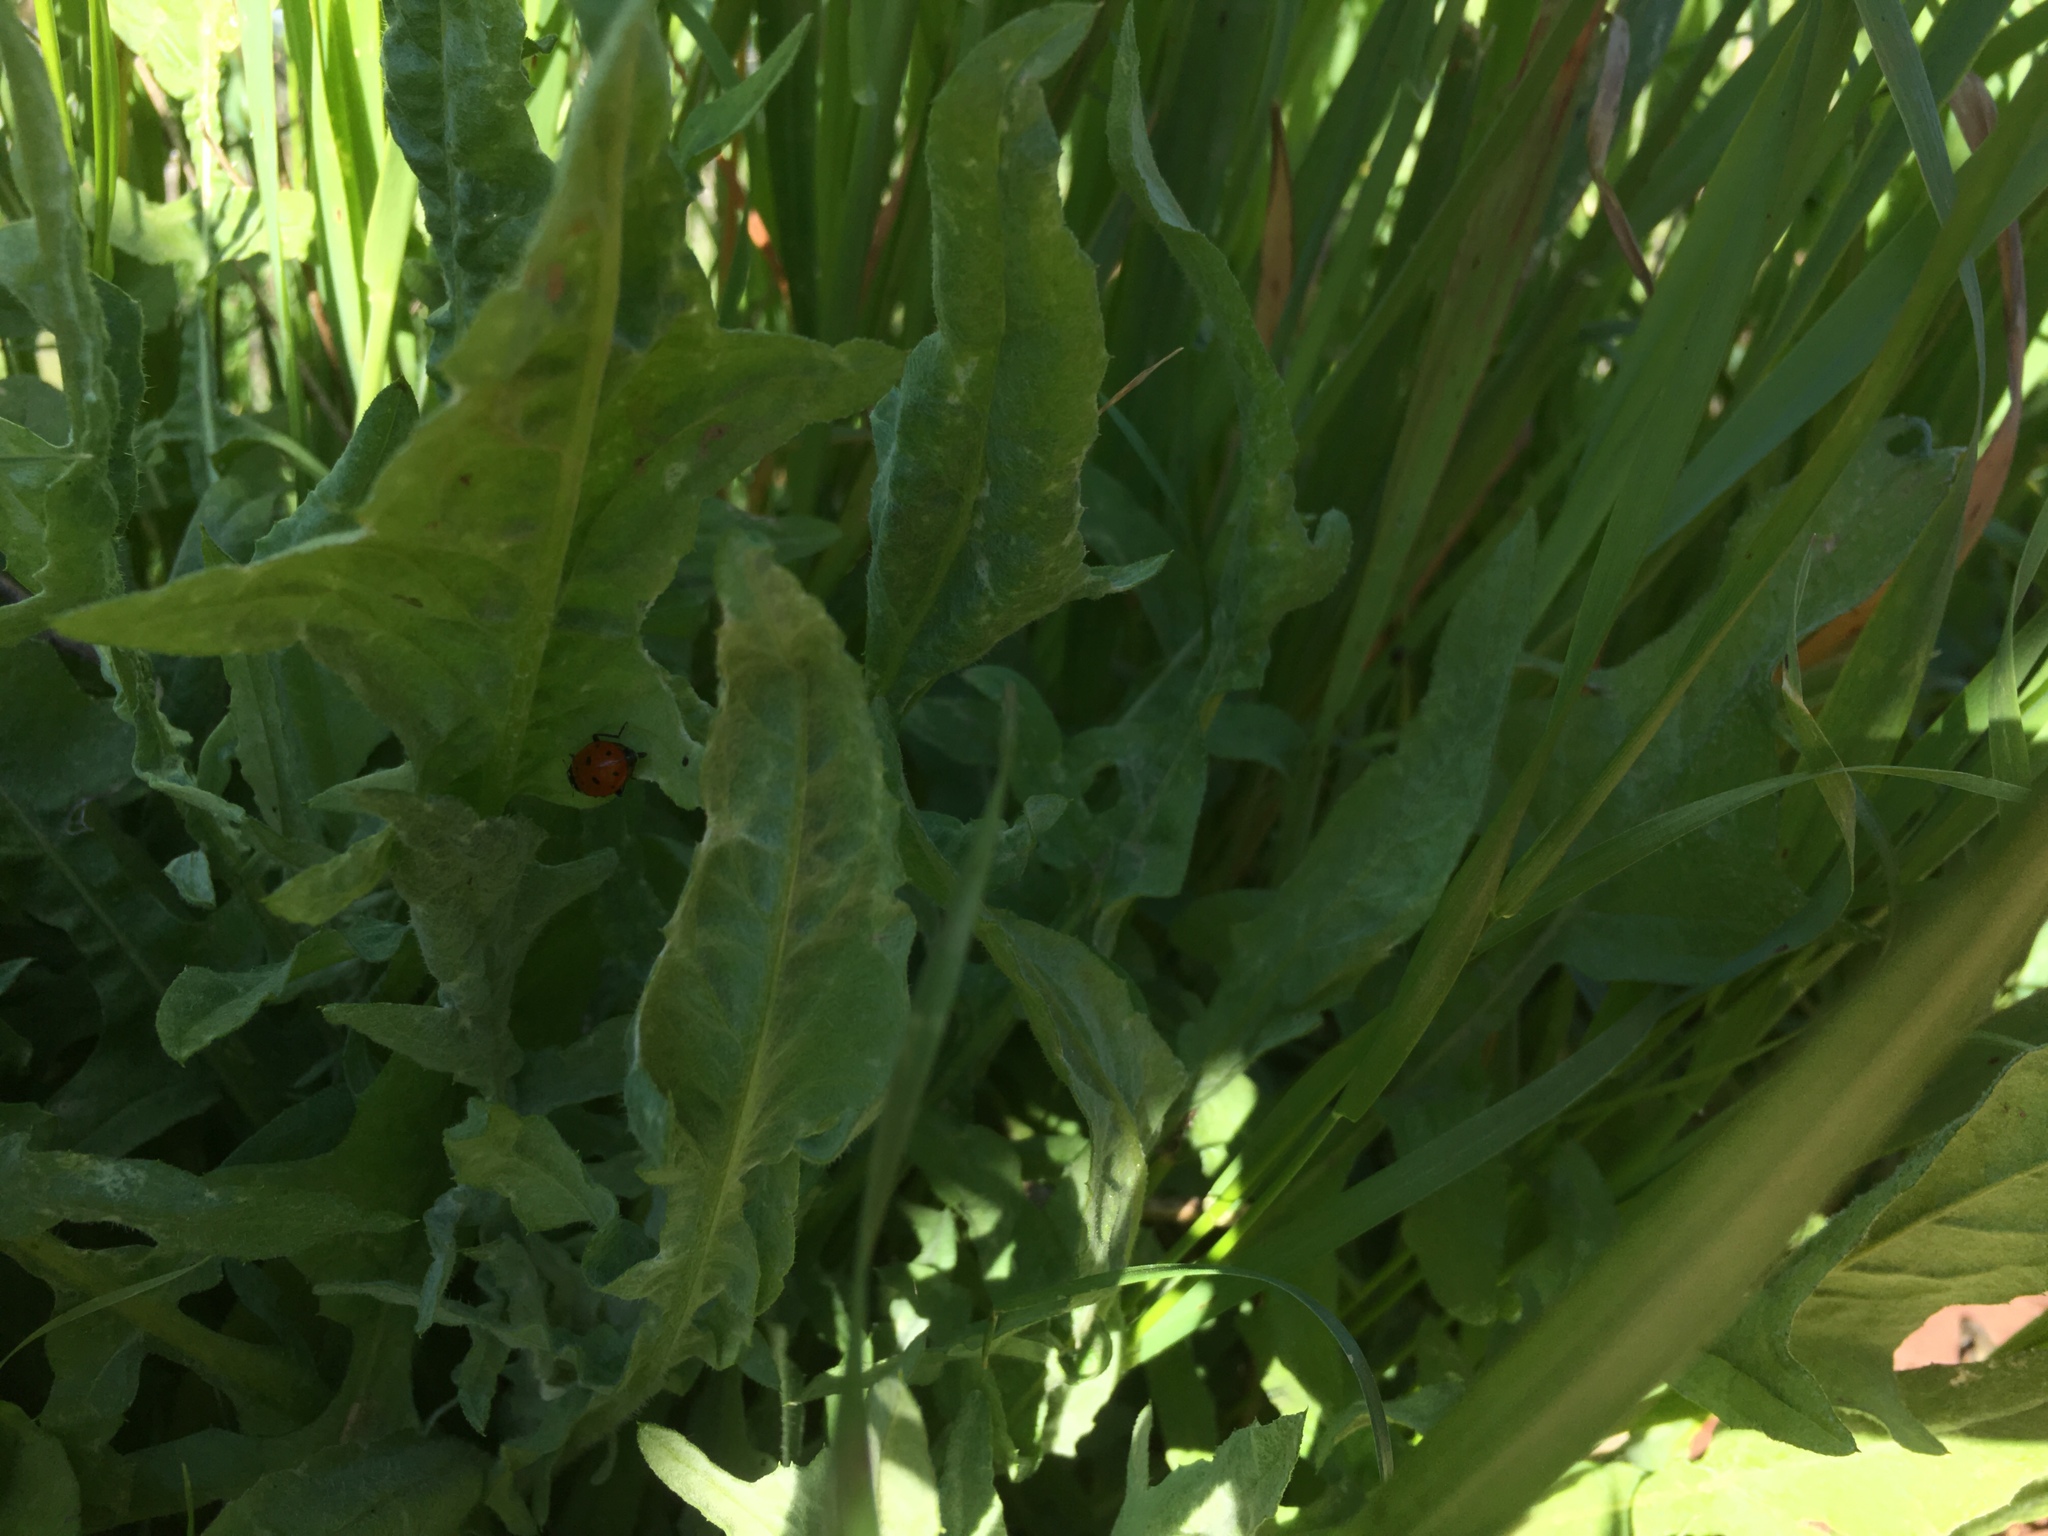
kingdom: Animalia
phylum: Arthropoda
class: Insecta
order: Coleoptera
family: Coccinellidae
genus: Hippodamia
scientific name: Hippodamia convergens
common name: Convergent lady beetle
